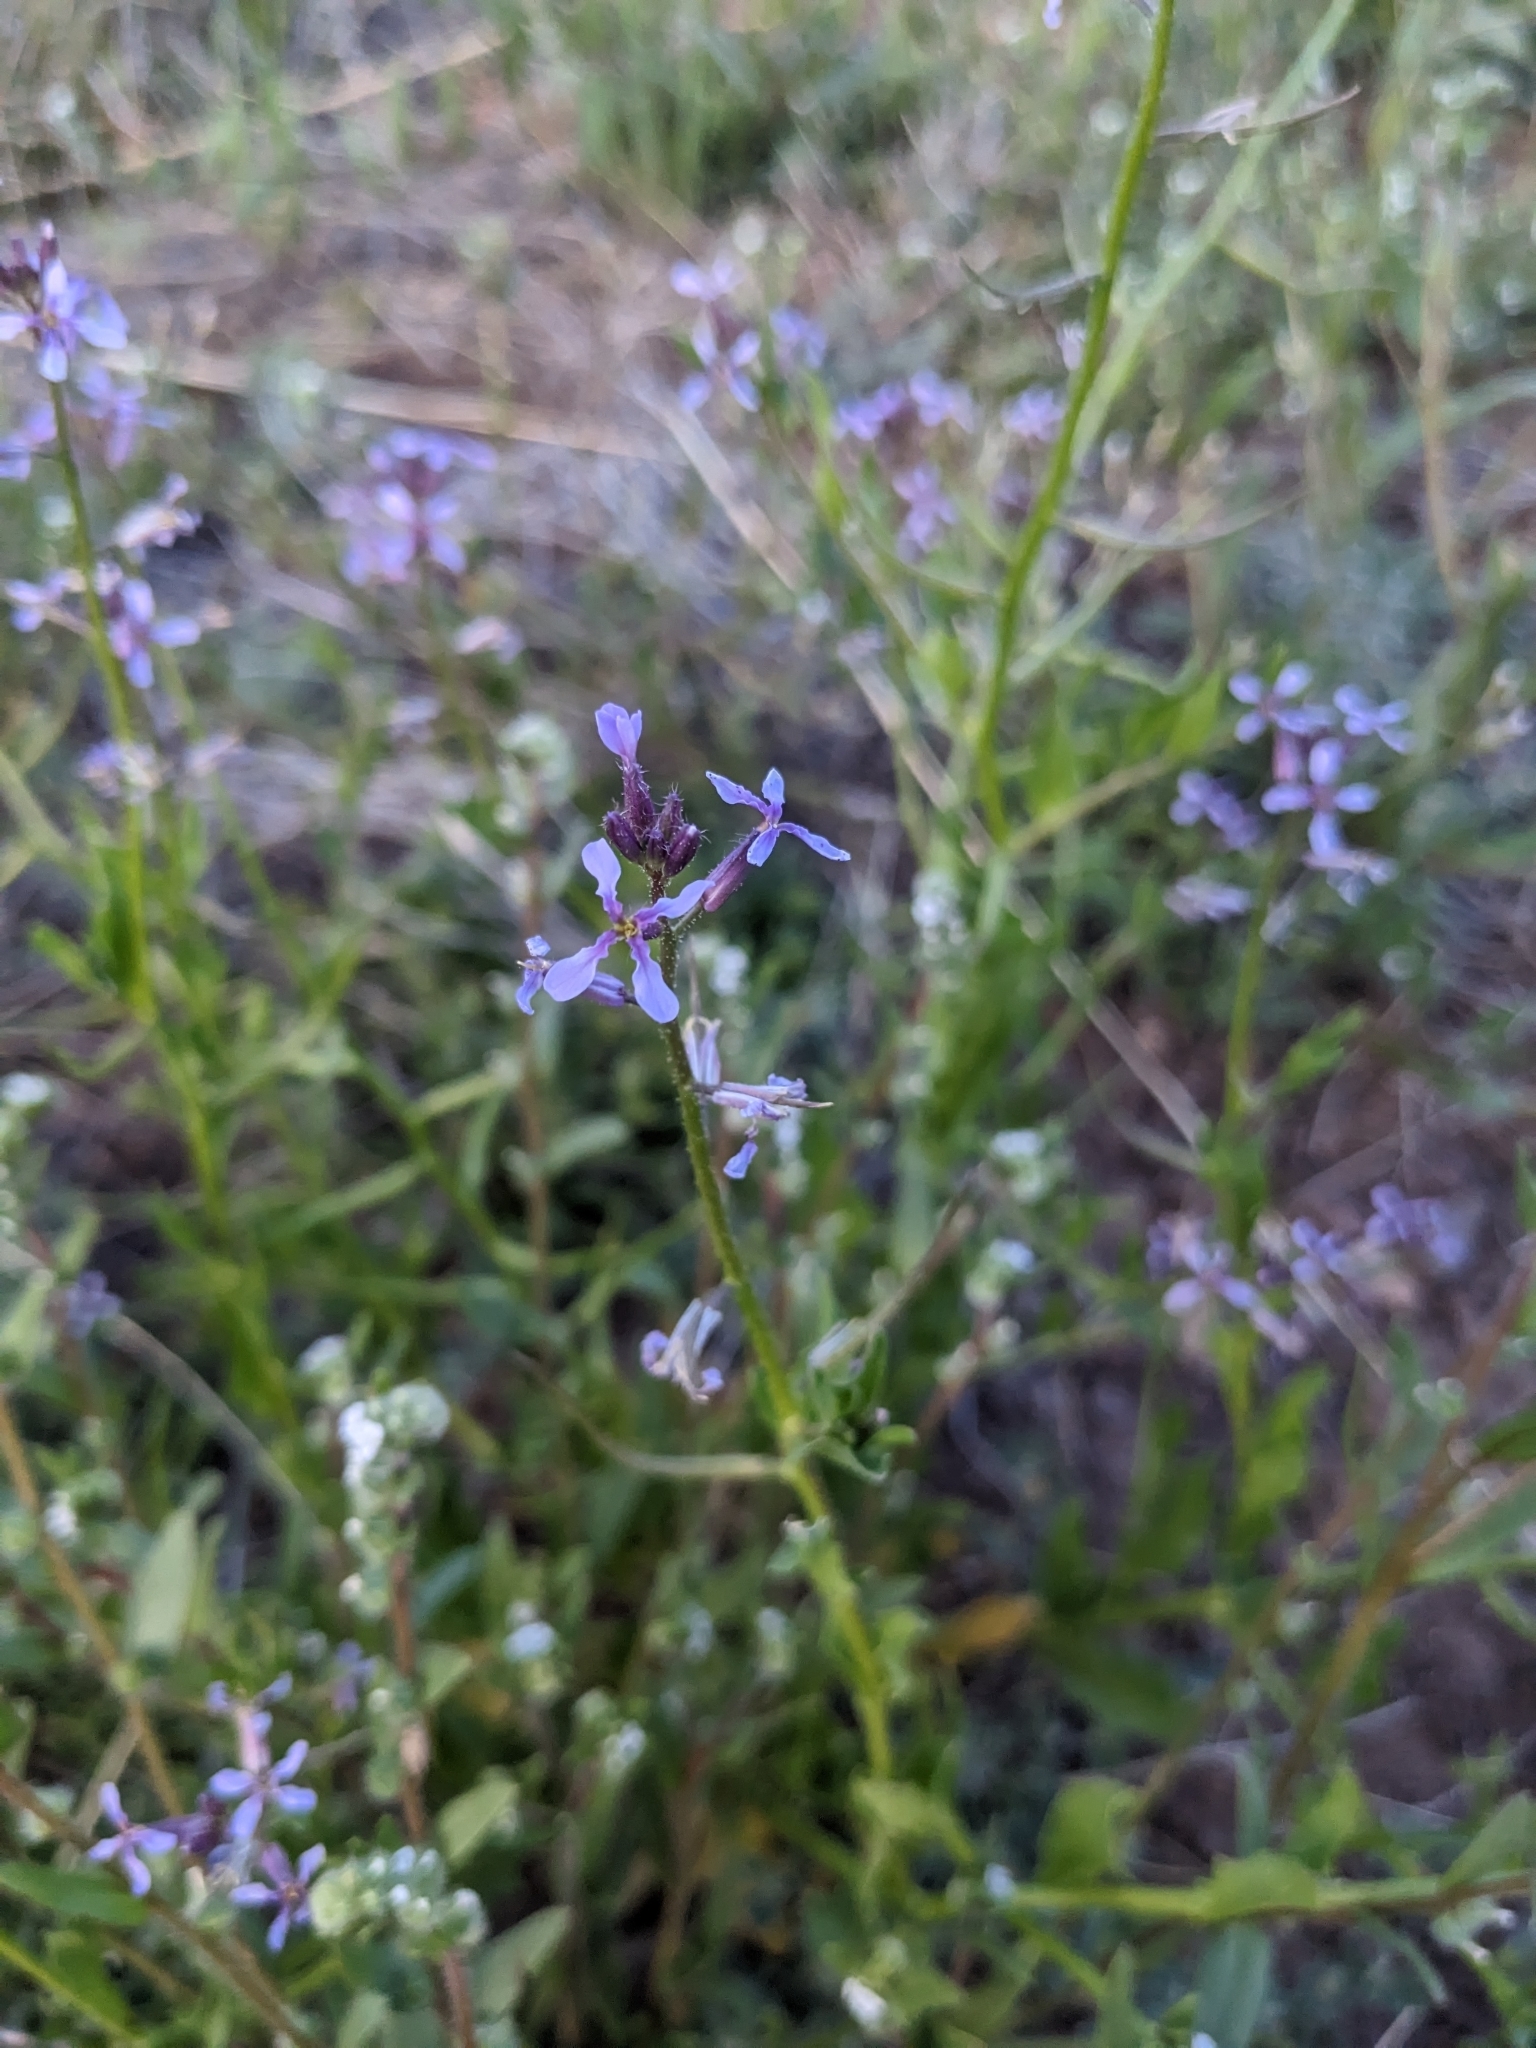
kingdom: Plantae
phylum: Tracheophyta
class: Magnoliopsida
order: Brassicales
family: Brassicaceae
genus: Chorispora
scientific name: Chorispora tenella
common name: Crossflower
